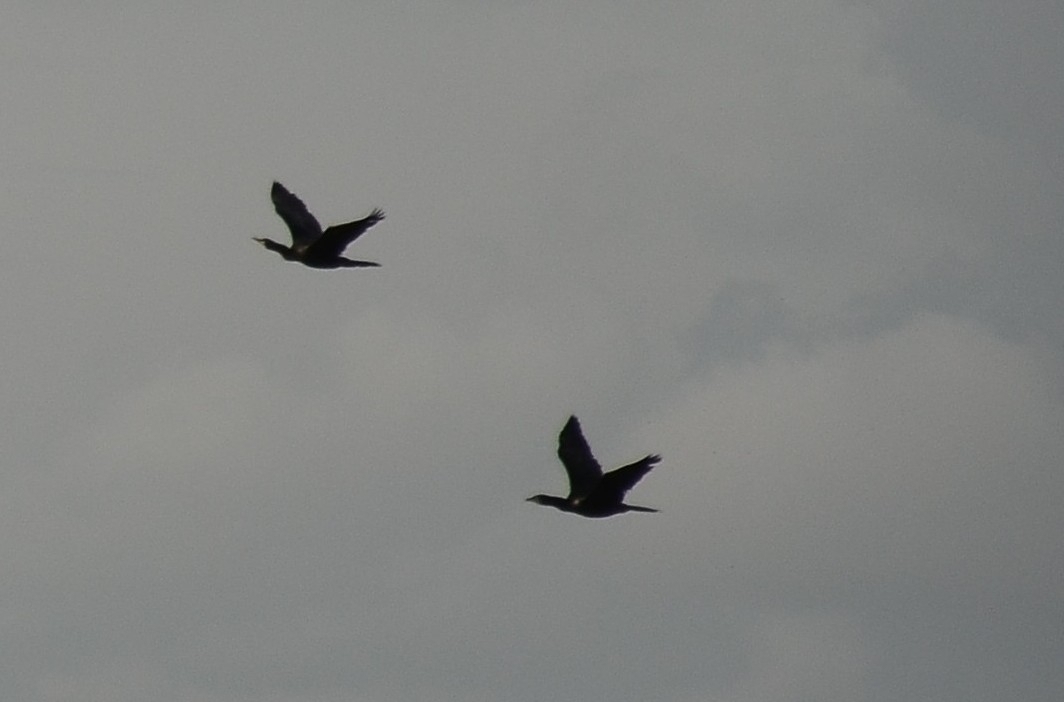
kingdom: Animalia
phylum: Chordata
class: Aves
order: Suliformes
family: Phalacrocoracidae
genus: Microcarbo
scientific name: Microcarbo niger
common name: Little cormorant
